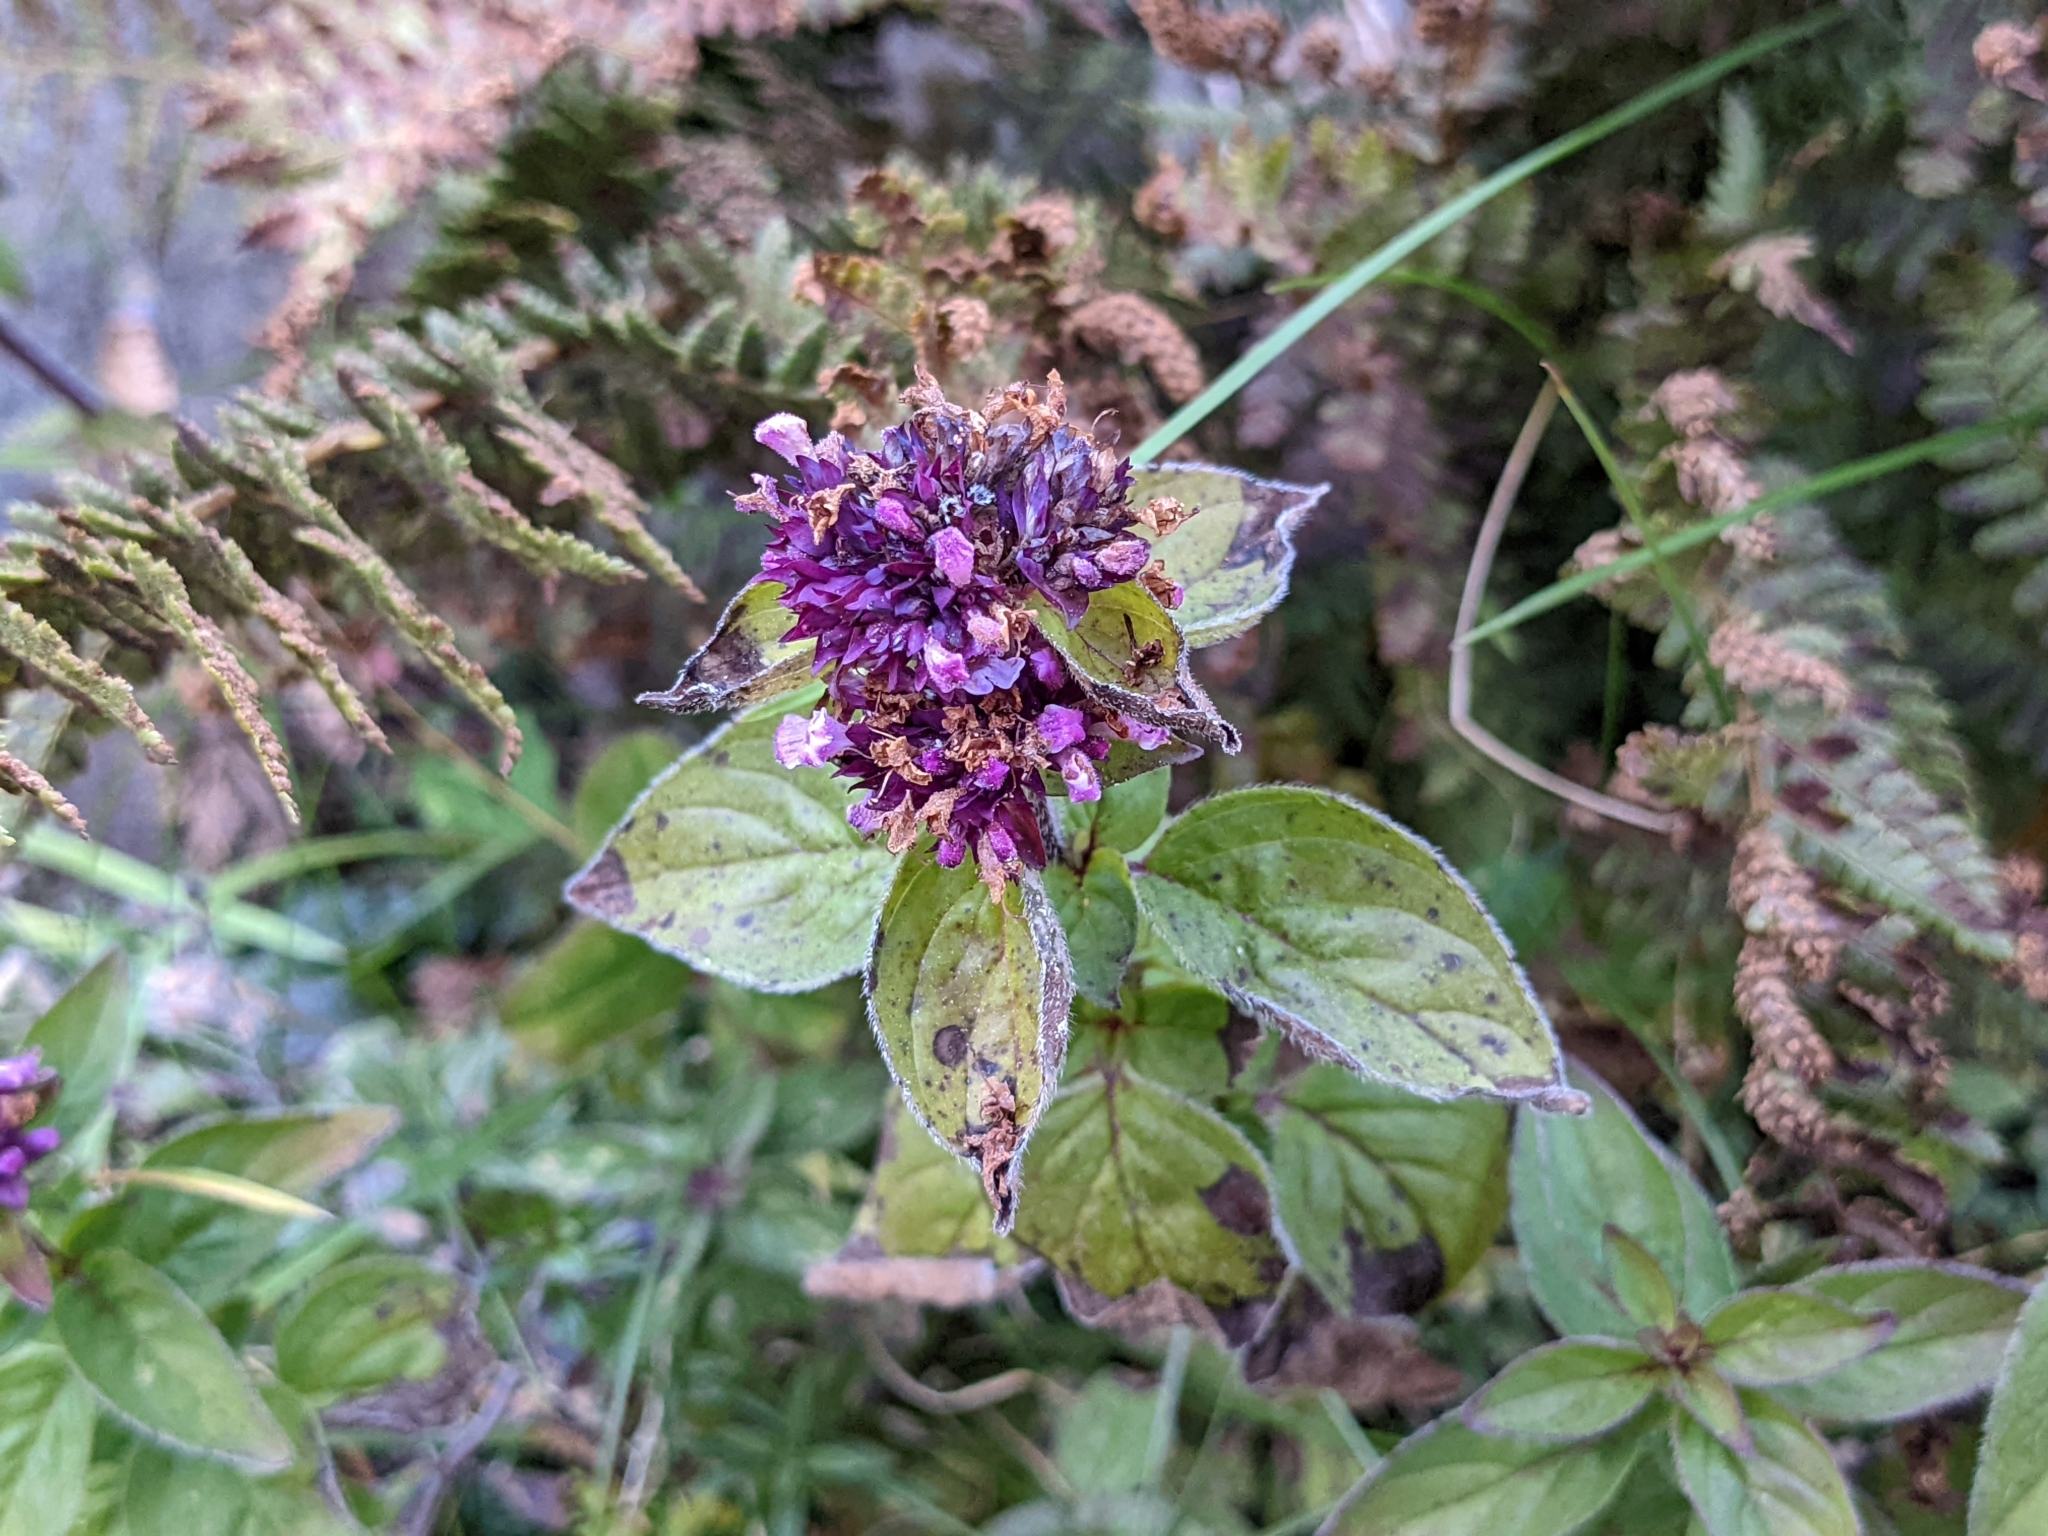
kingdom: Plantae
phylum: Tracheophyta
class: Magnoliopsida
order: Lamiales
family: Lamiaceae
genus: Origanum
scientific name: Origanum vulgare
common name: Wild marjoram
